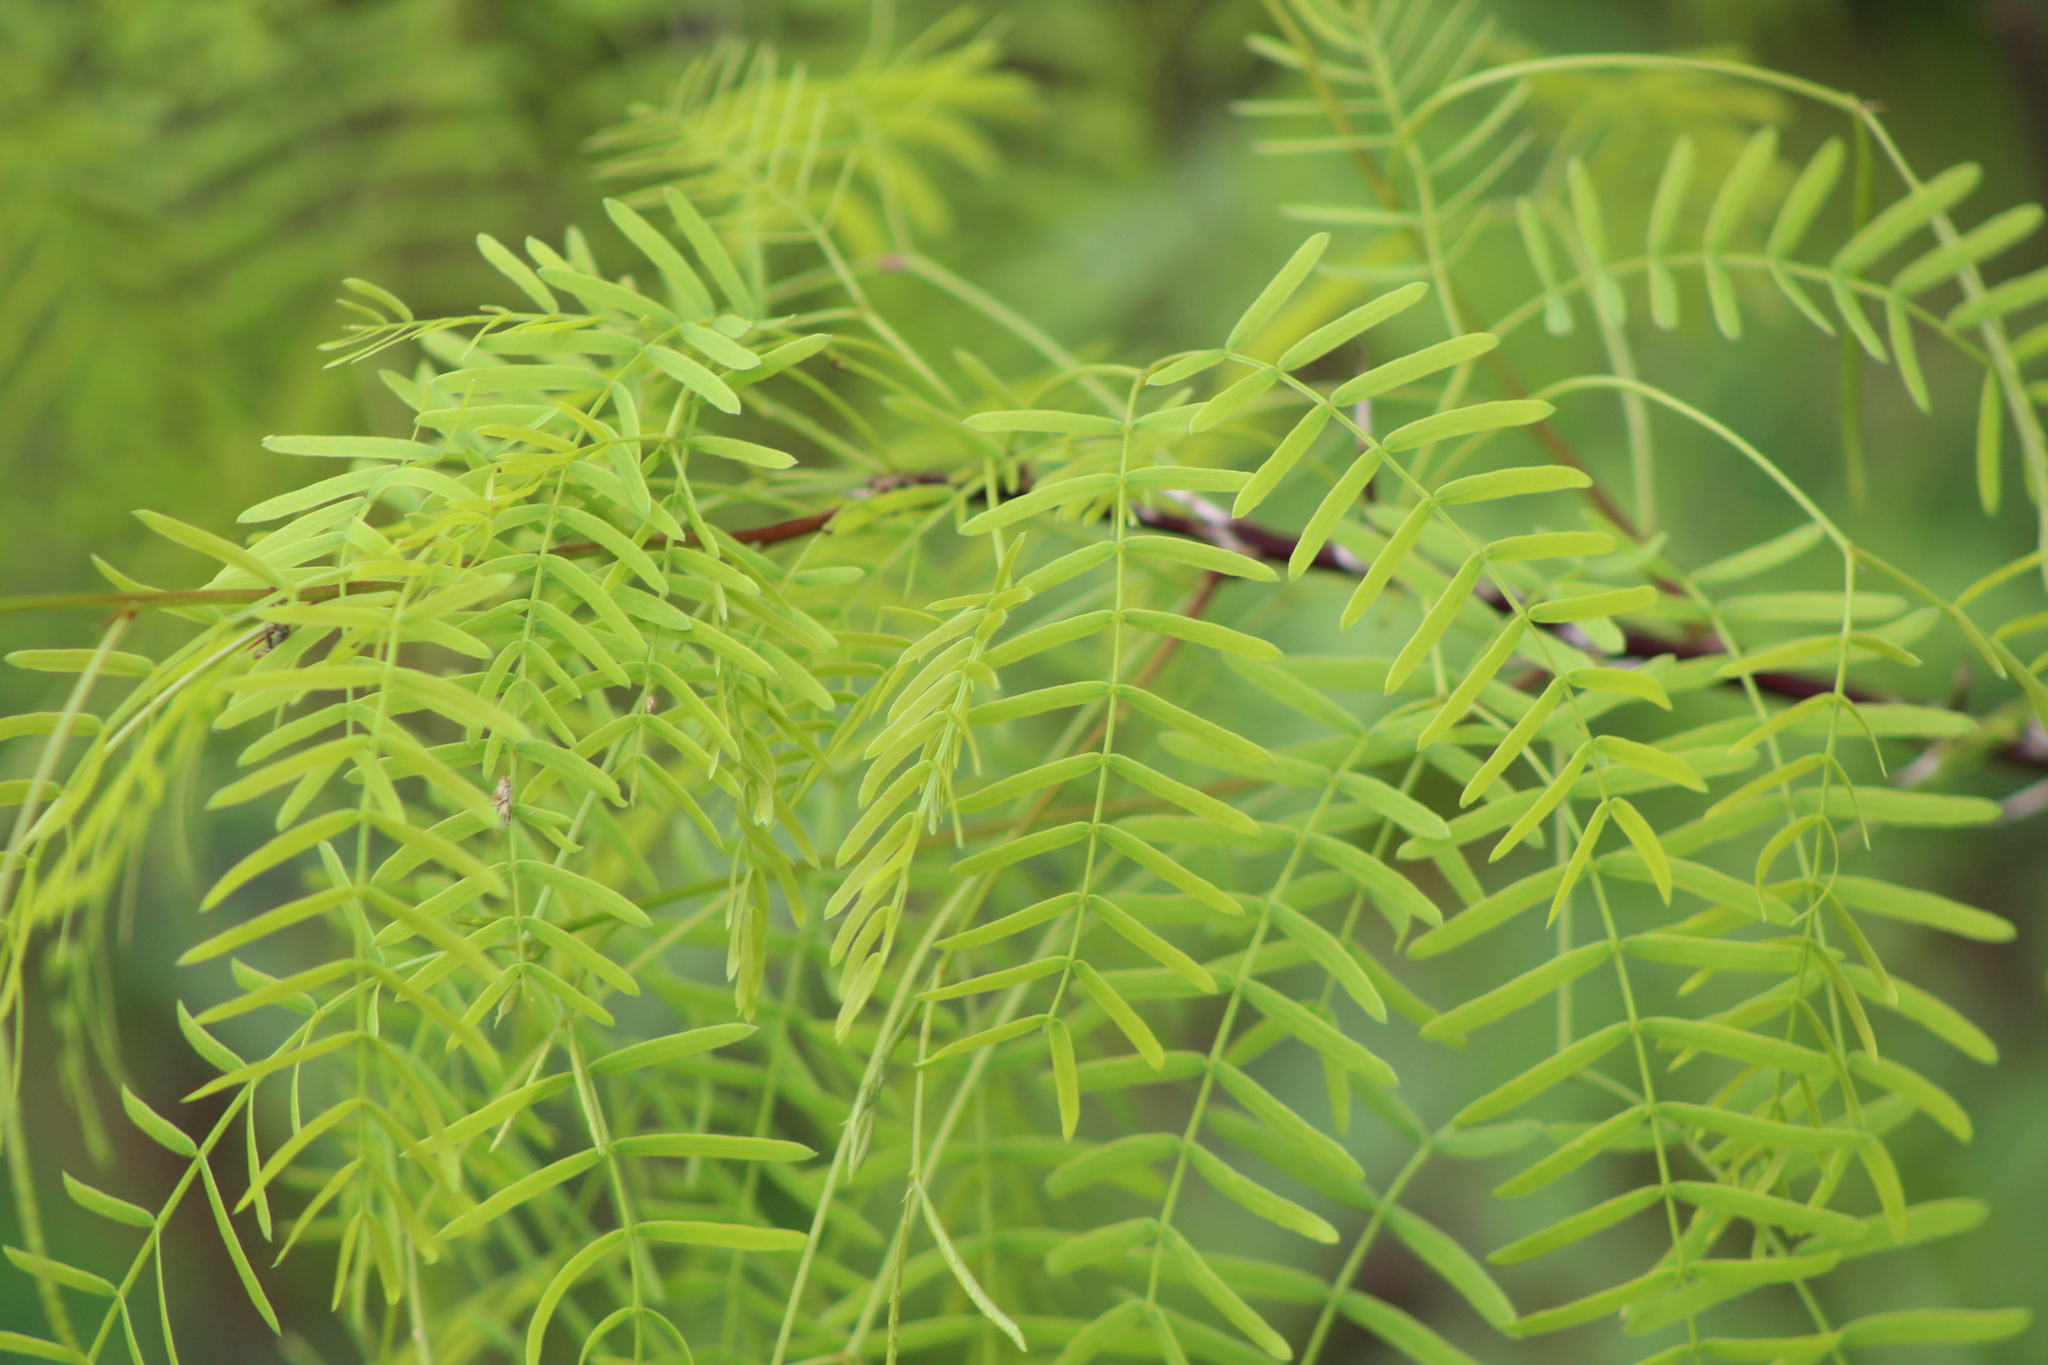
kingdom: Plantae
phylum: Tracheophyta
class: Magnoliopsida
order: Fabales
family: Fabaceae
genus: Prosopis
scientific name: Prosopis glandulosa
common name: Honey mesquite
